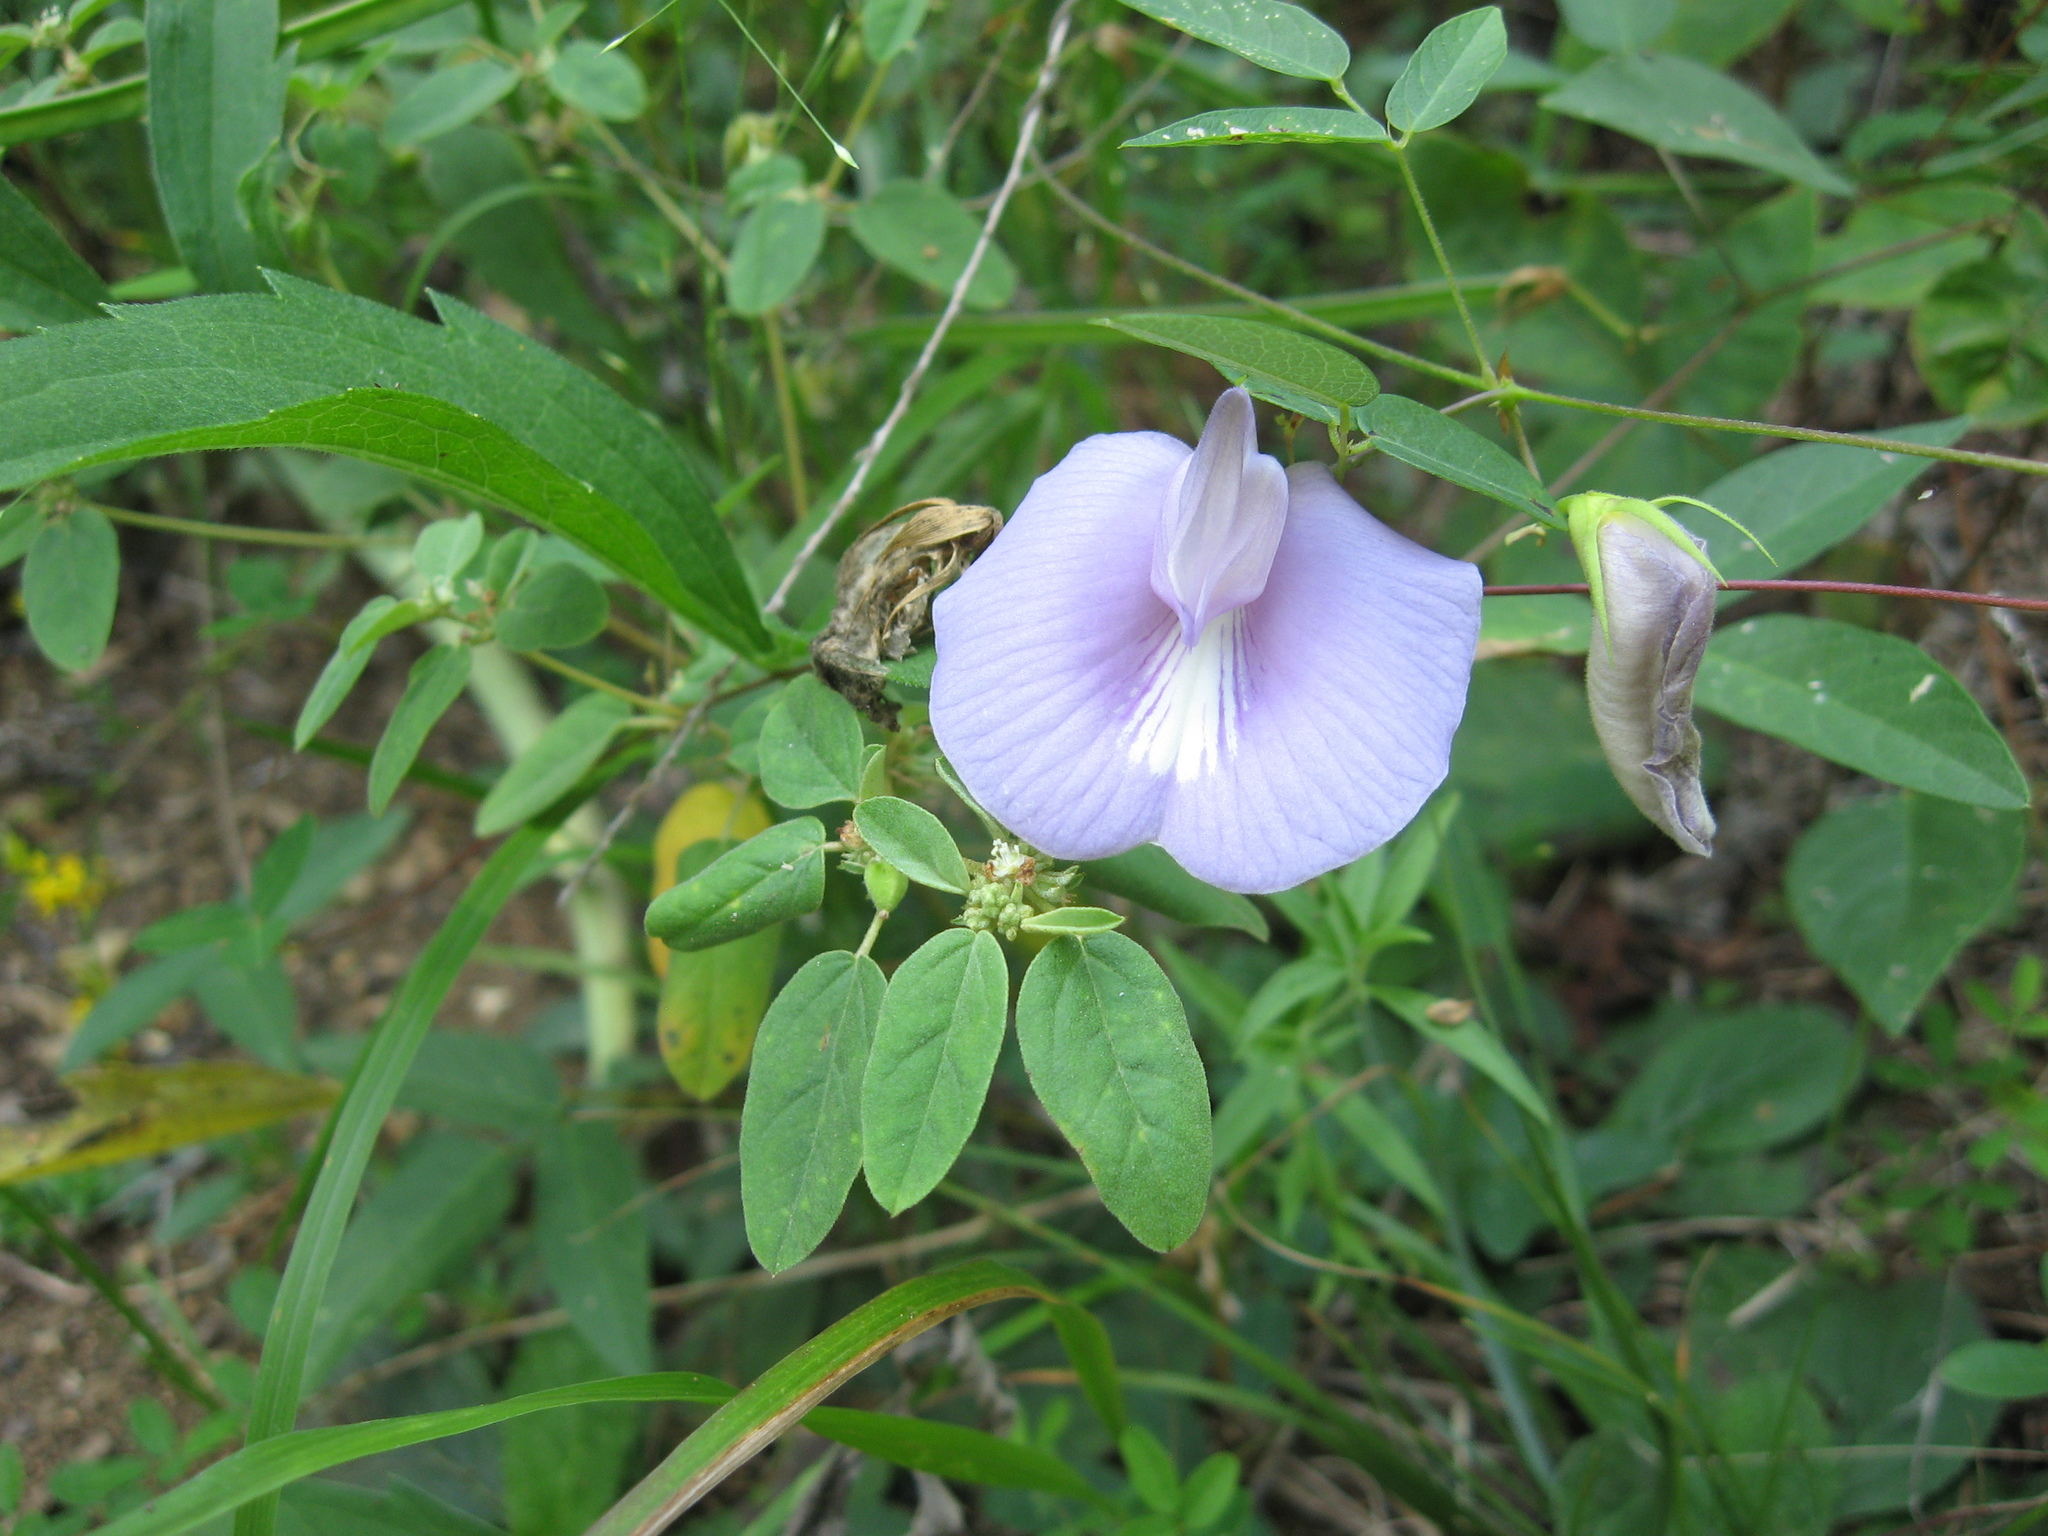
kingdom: Plantae
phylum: Tracheophyta
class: Magnoliopsida
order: Fabales
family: Fabaceae
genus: Centrosema
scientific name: Centrosema virginianum
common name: Butterfly-pea
